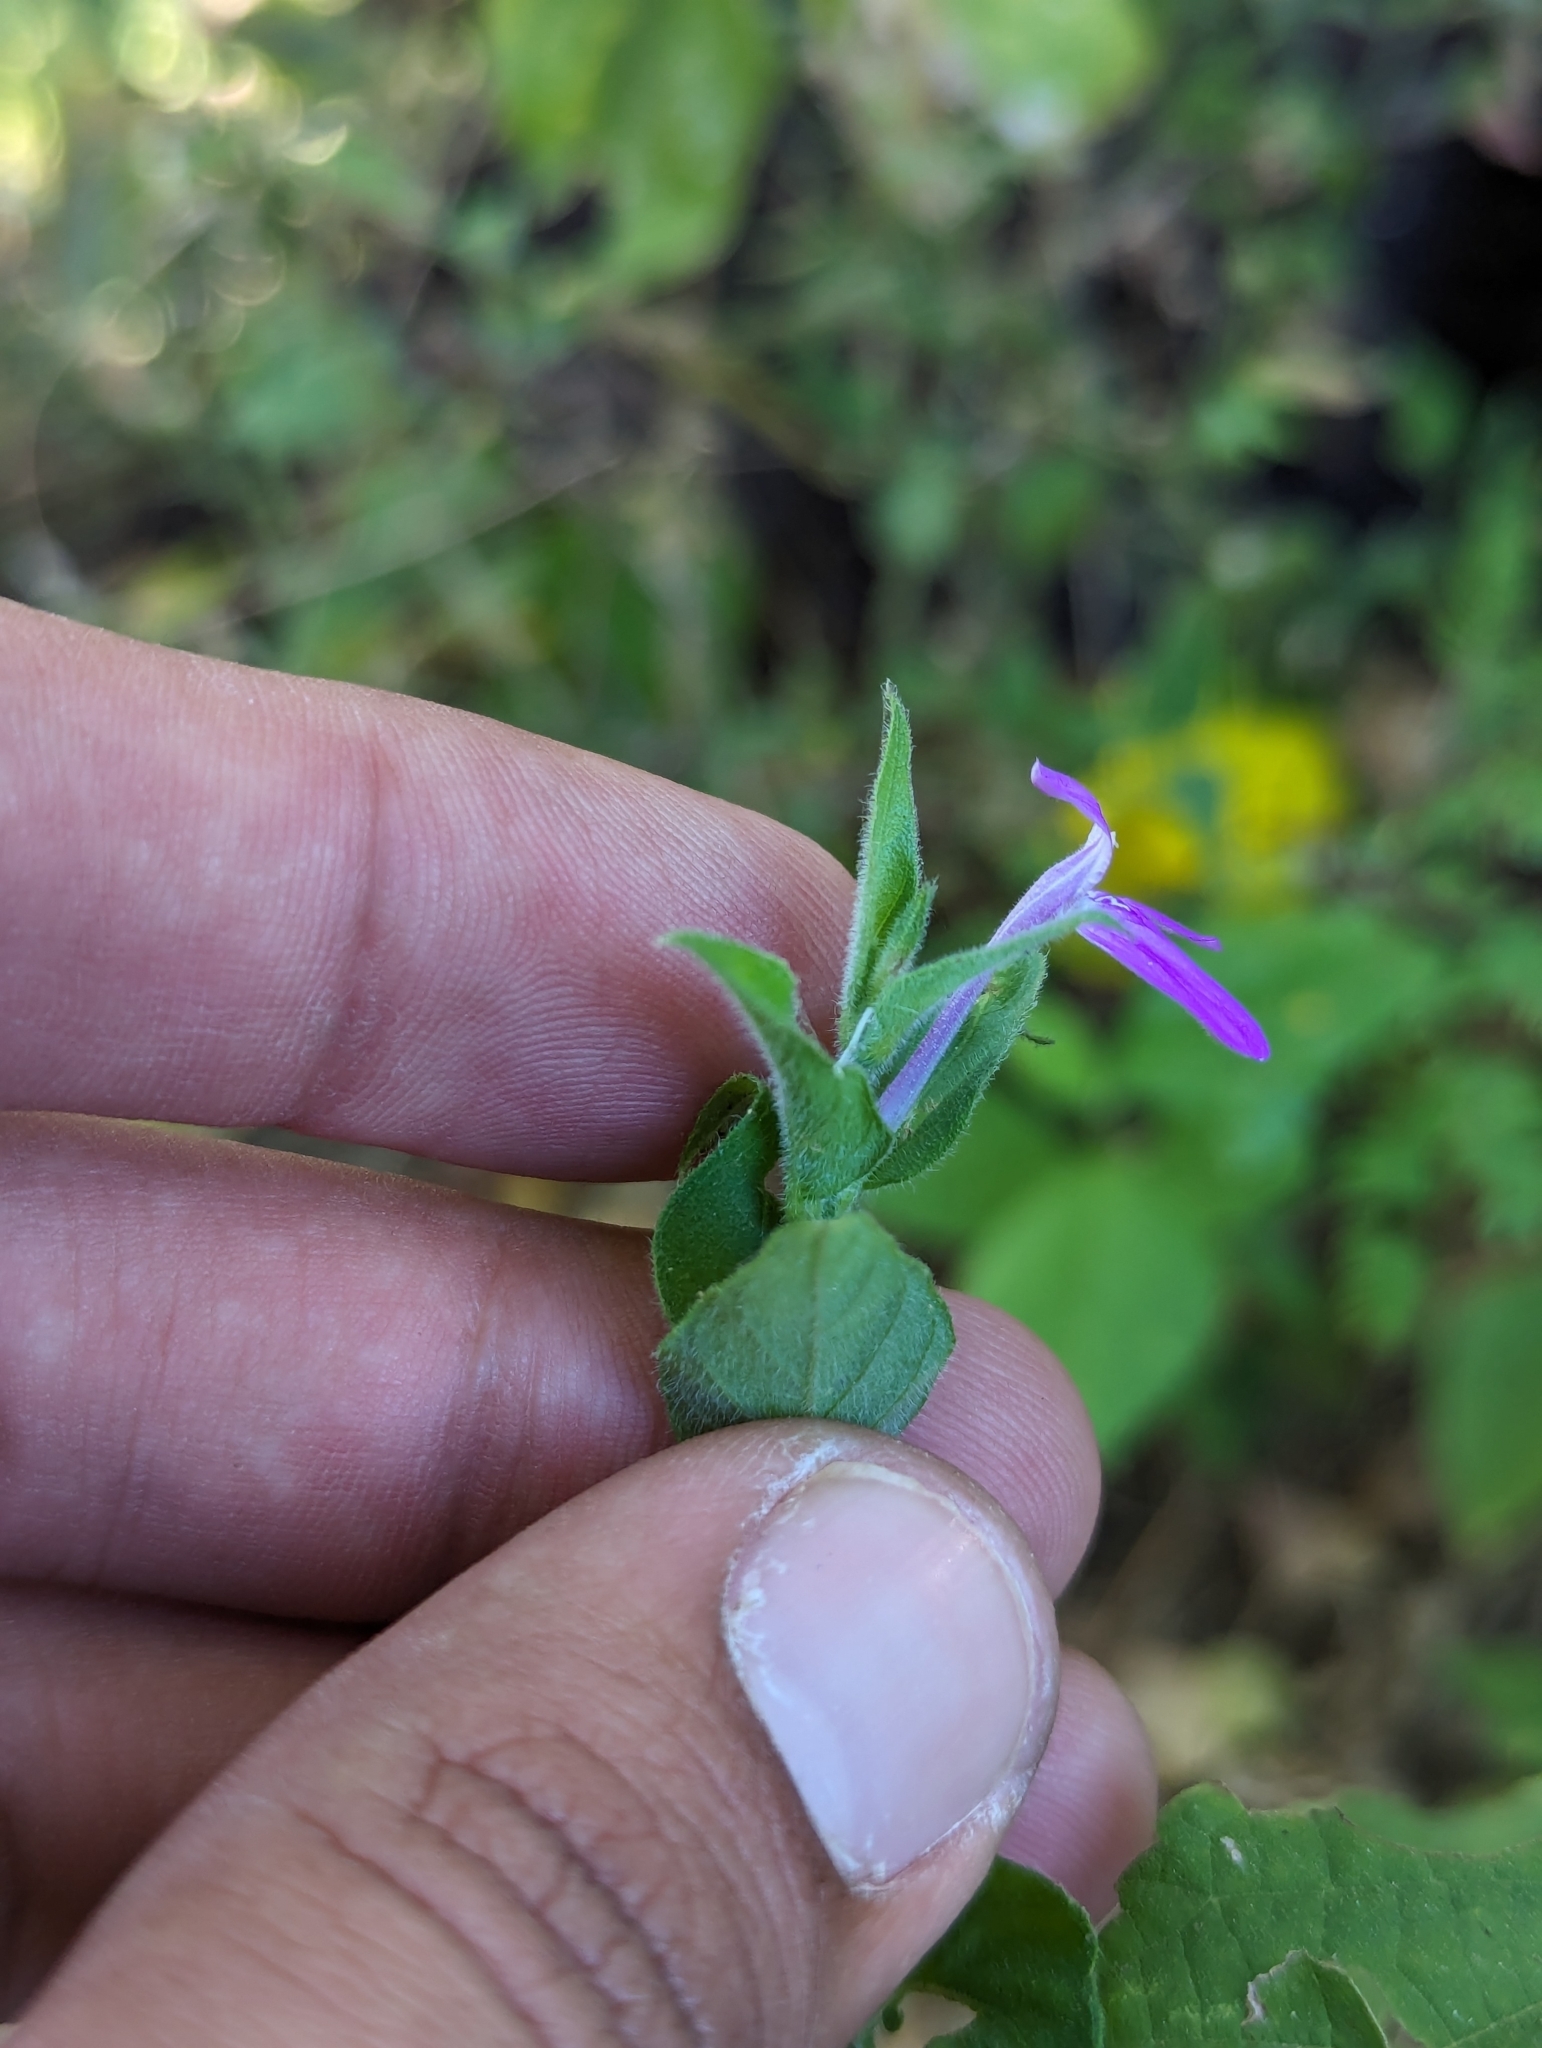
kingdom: Plantae
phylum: Tracheophyta
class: Magnoliopsida
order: Lamiales
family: Acanthaceae
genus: Dianthera
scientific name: Dianthera incerta
